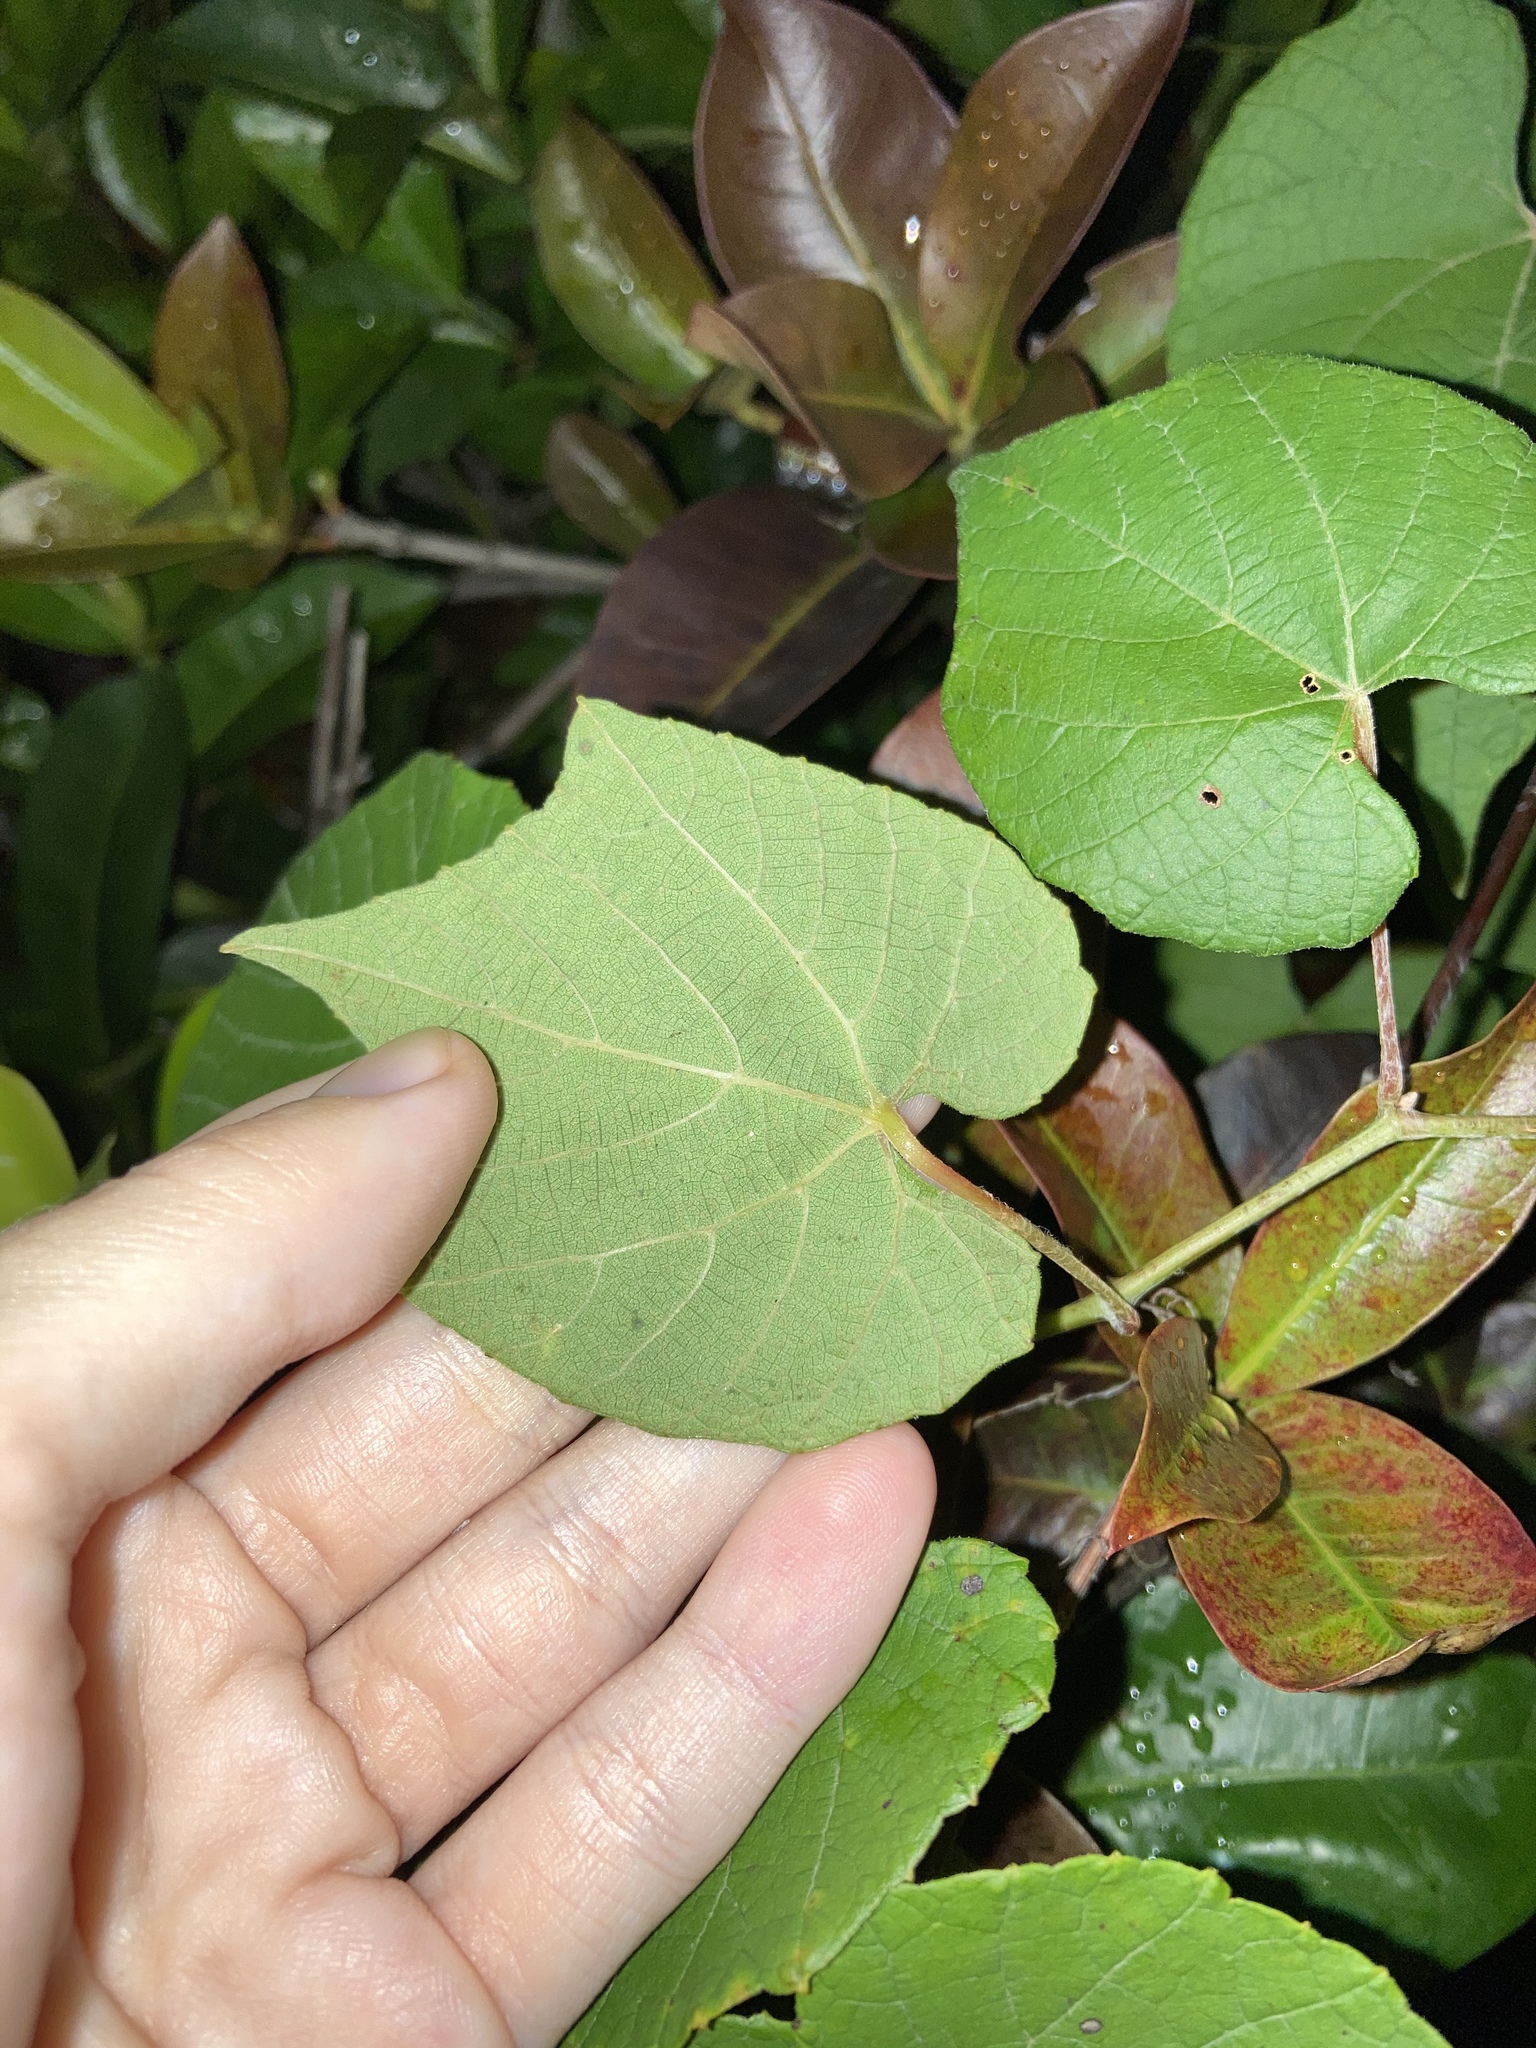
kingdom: Plantae
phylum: Tracheophyta
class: Magnoliopsida
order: Vitales
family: Vitaceae
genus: Vitis
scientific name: Vitis cinerea
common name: Ashy grape
